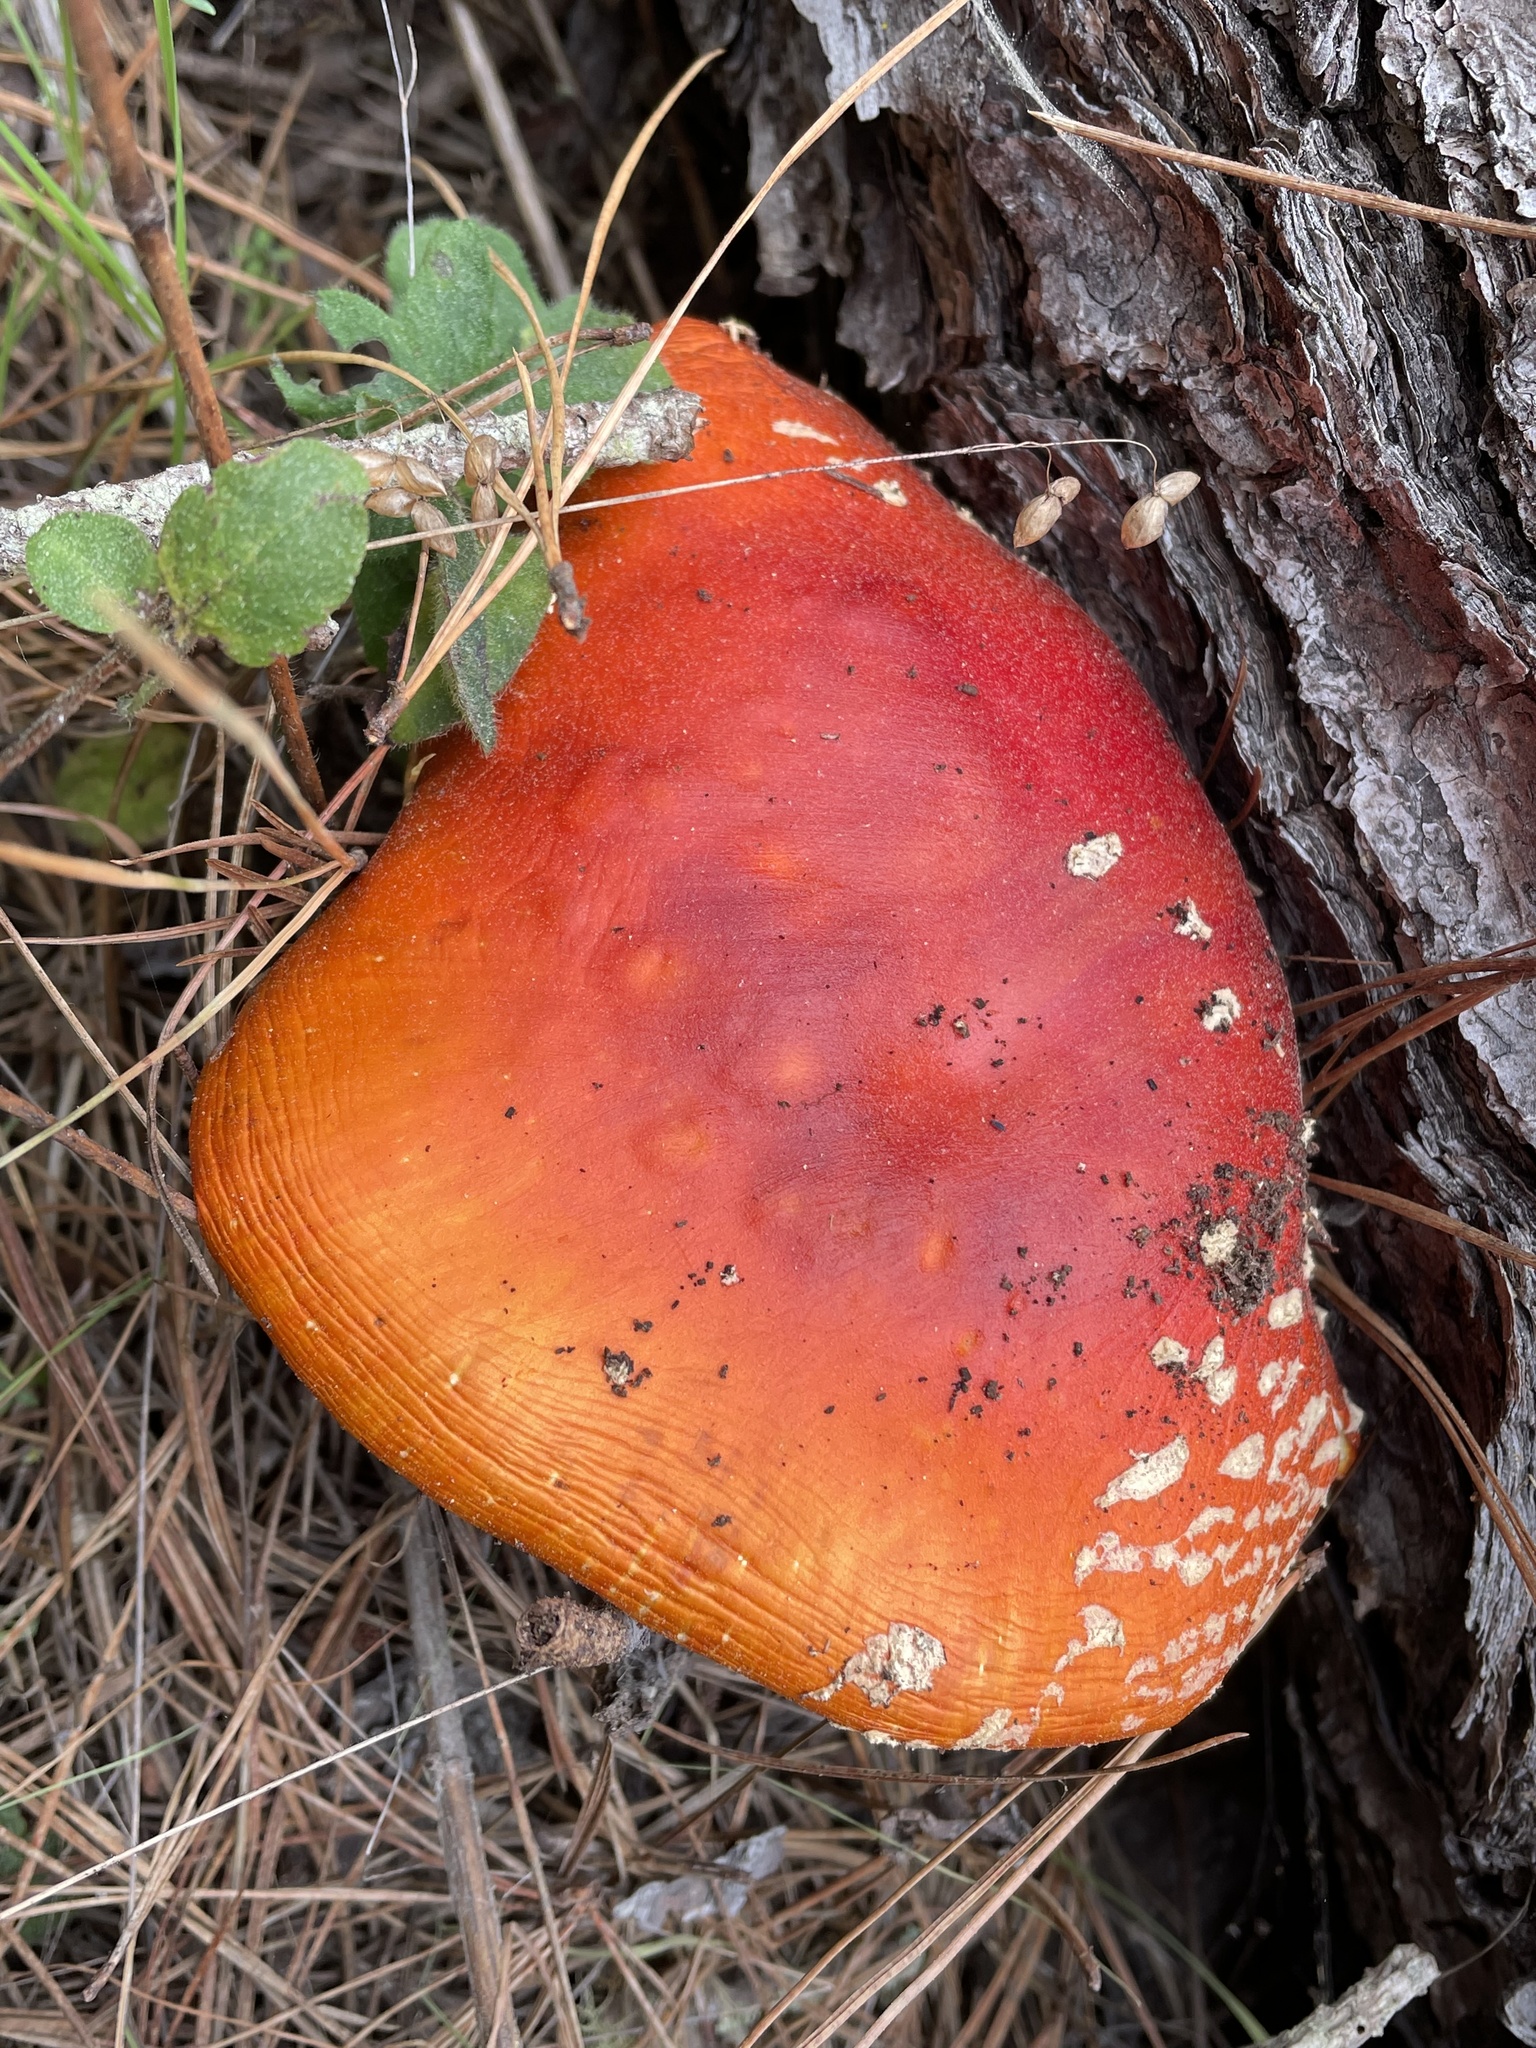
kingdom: Fungi
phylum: Basidiomycota
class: Agaricomycetes
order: Agaricales
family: Amanitaceae
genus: Amanita
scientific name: Amanita muscaria
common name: Fly agaric
